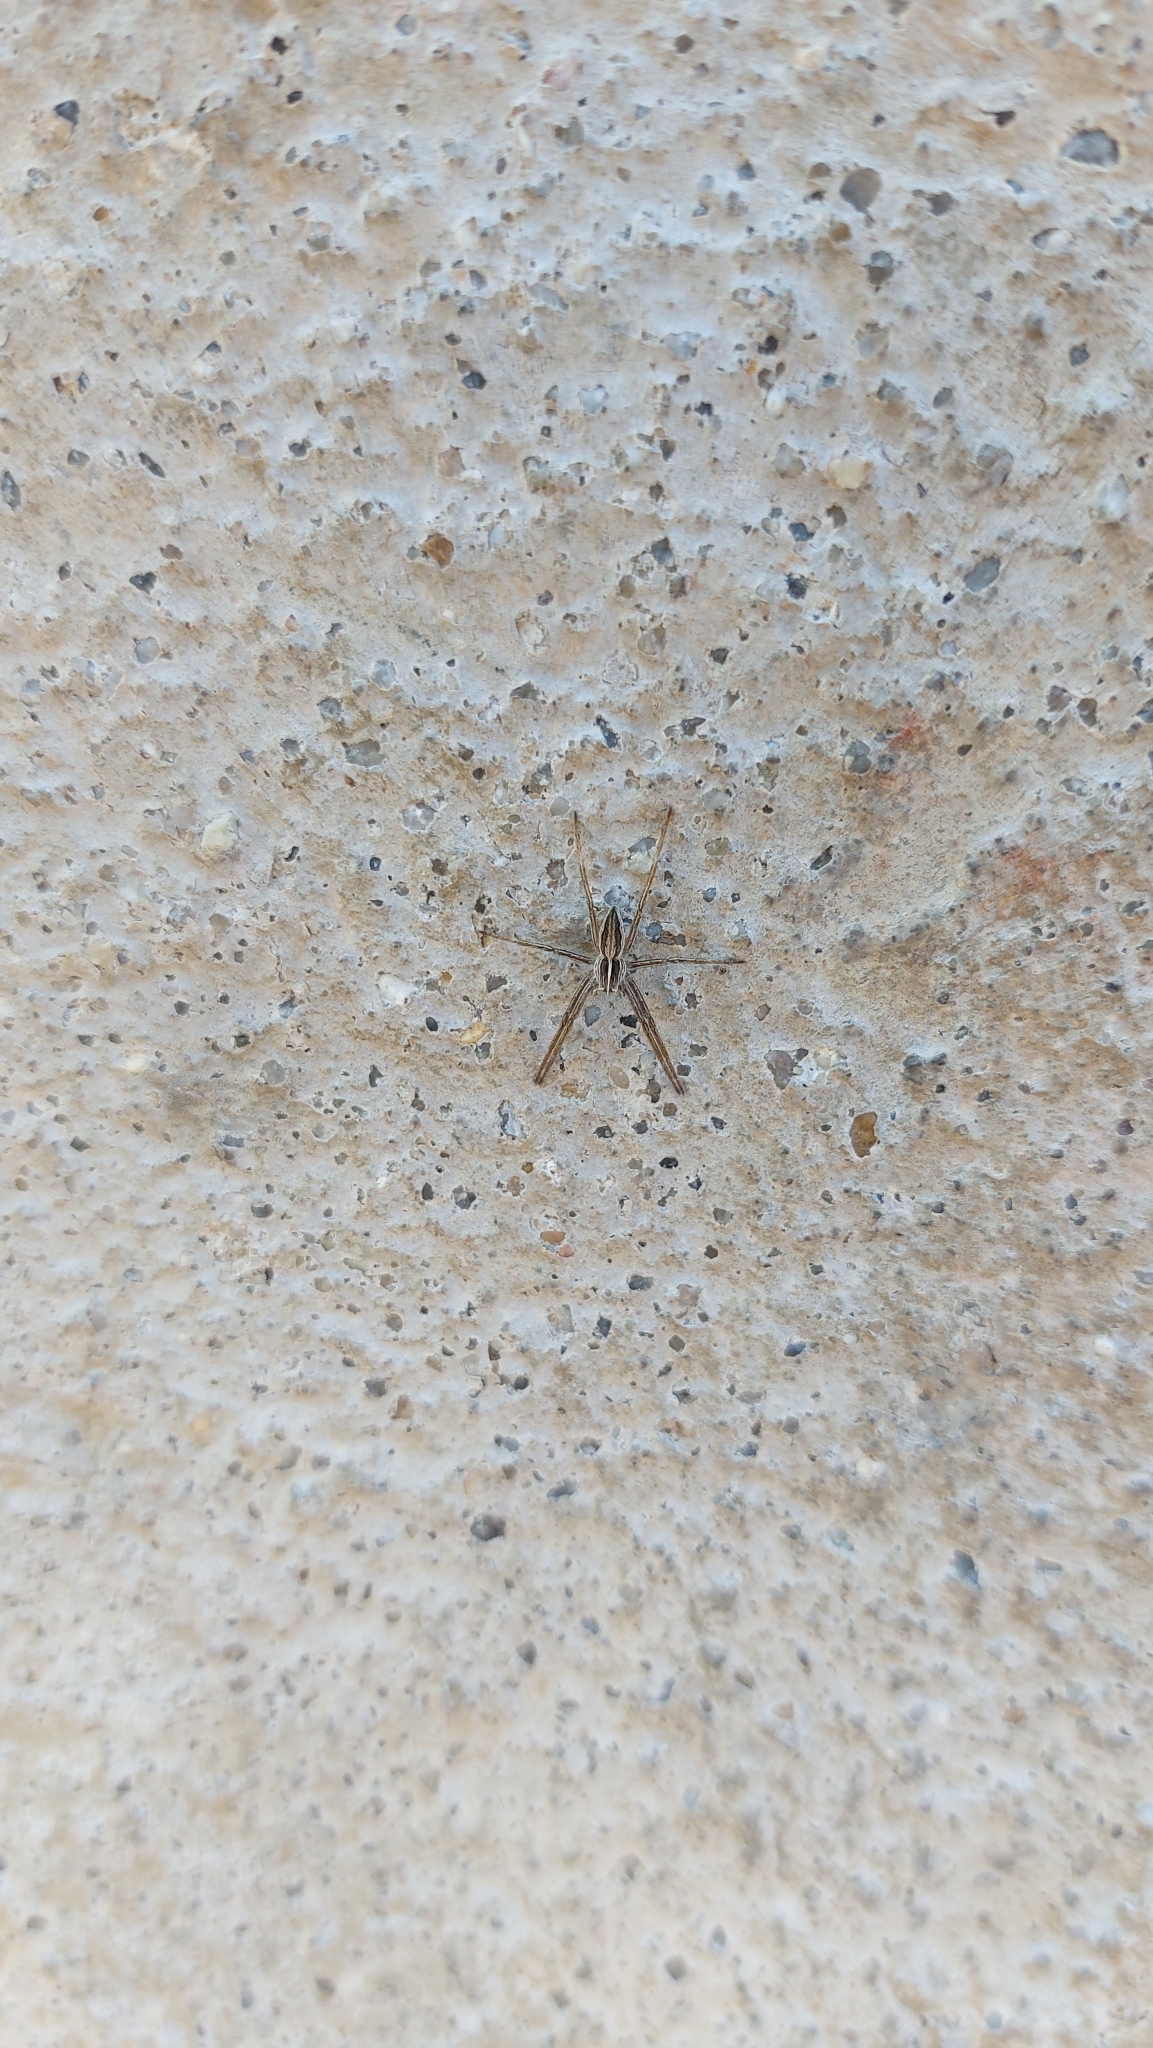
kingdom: Animalia
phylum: Arthropoda
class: Arachnida
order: Araneae
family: Pisauridae
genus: Pisaura
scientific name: Pisaura mirabilis
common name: Tent spider
